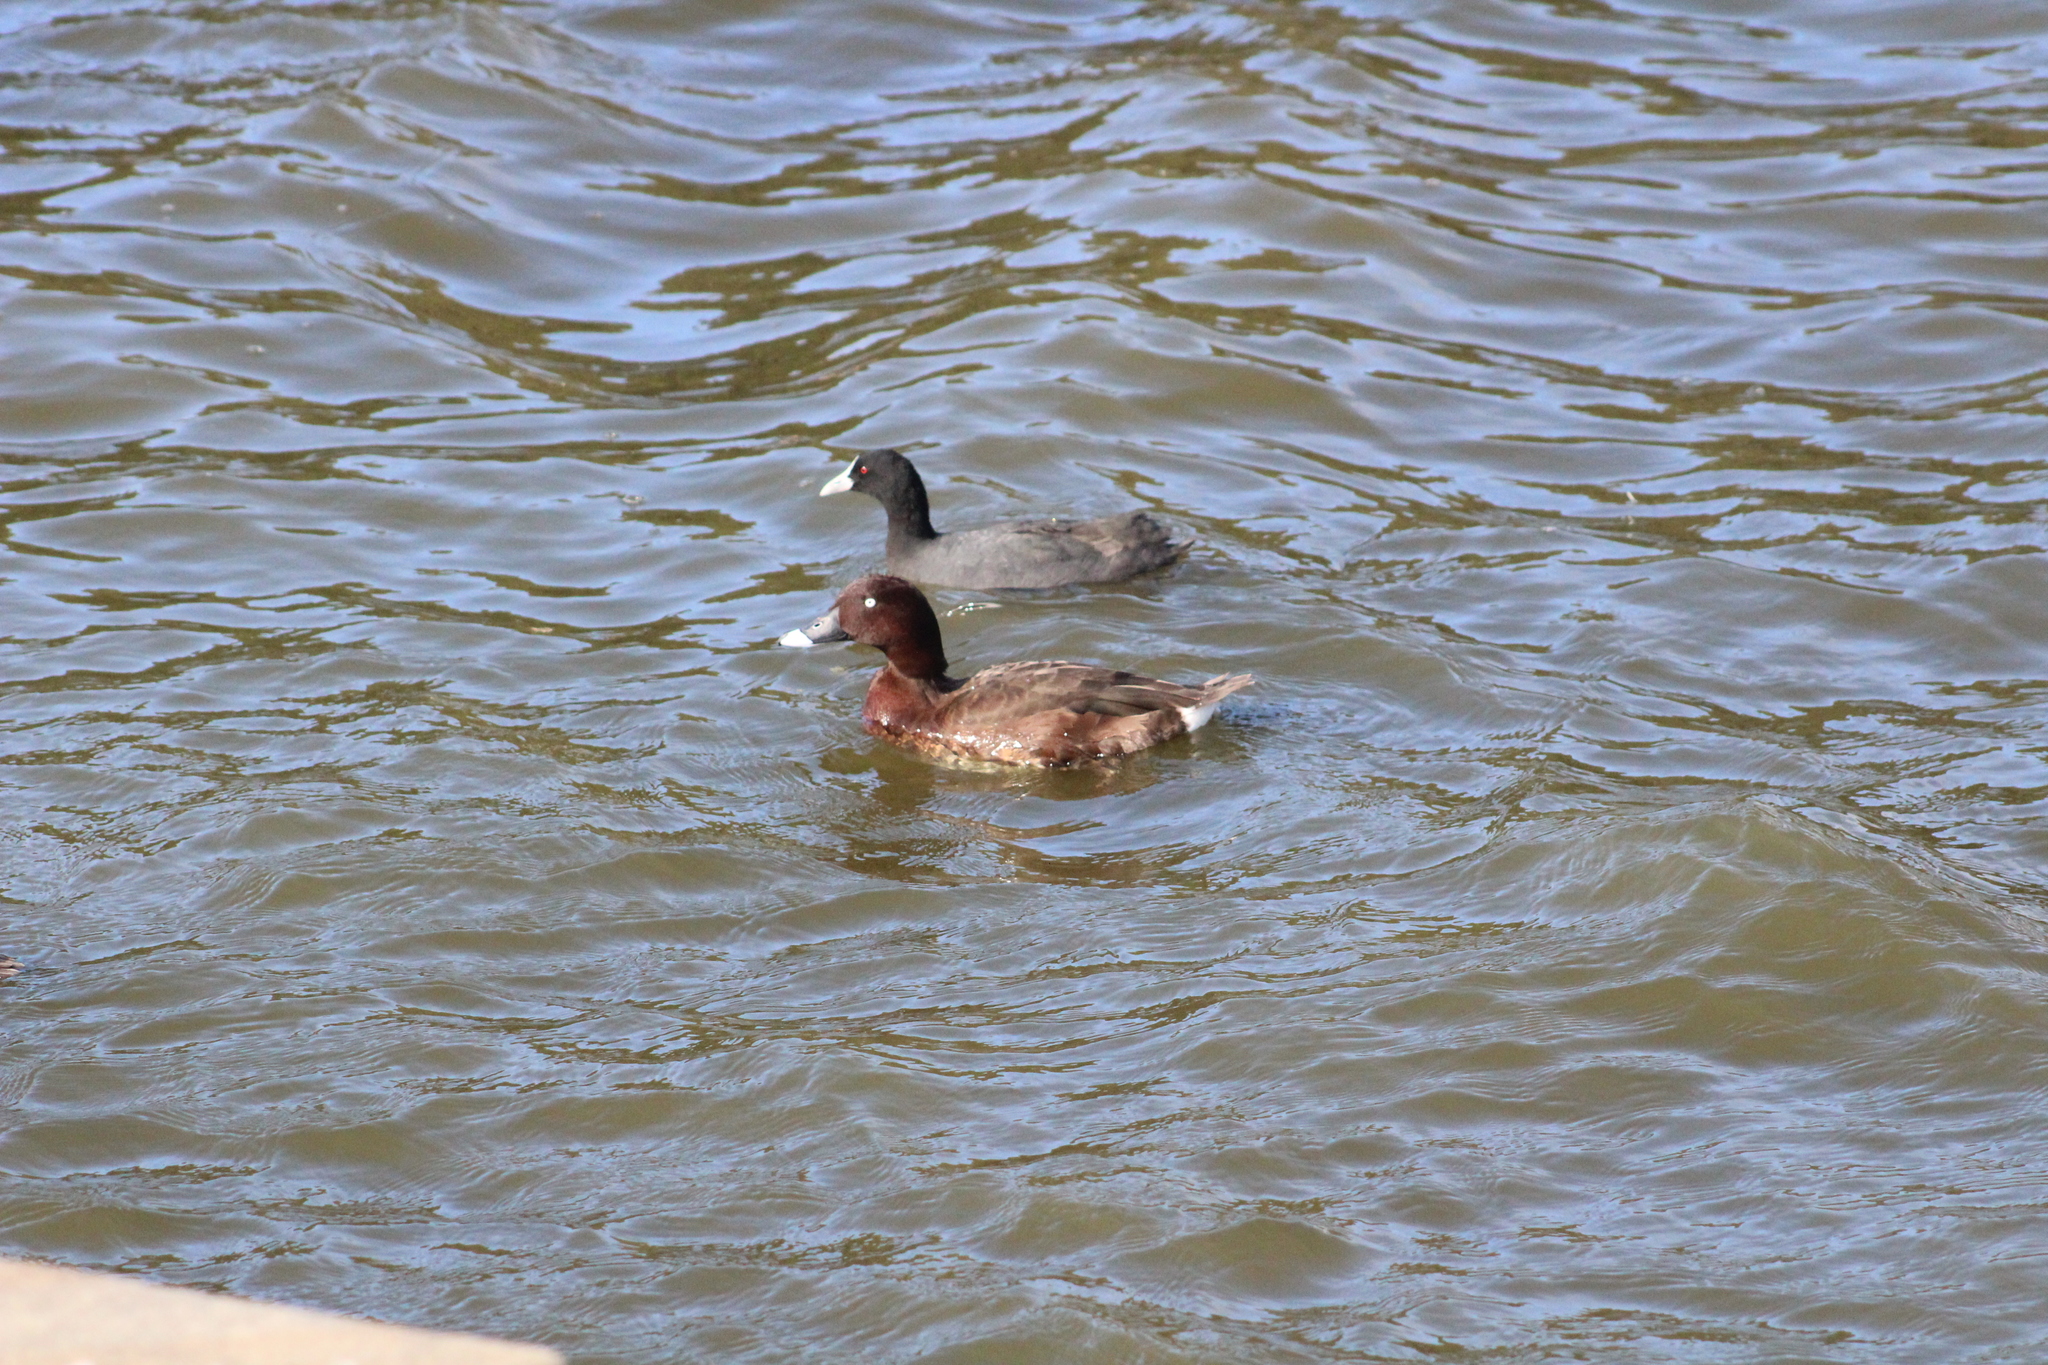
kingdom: Animalia
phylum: Chordata
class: Aves
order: Anseriformes
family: Anatidae
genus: Aythya
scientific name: Aythya australis
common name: Hardhead
